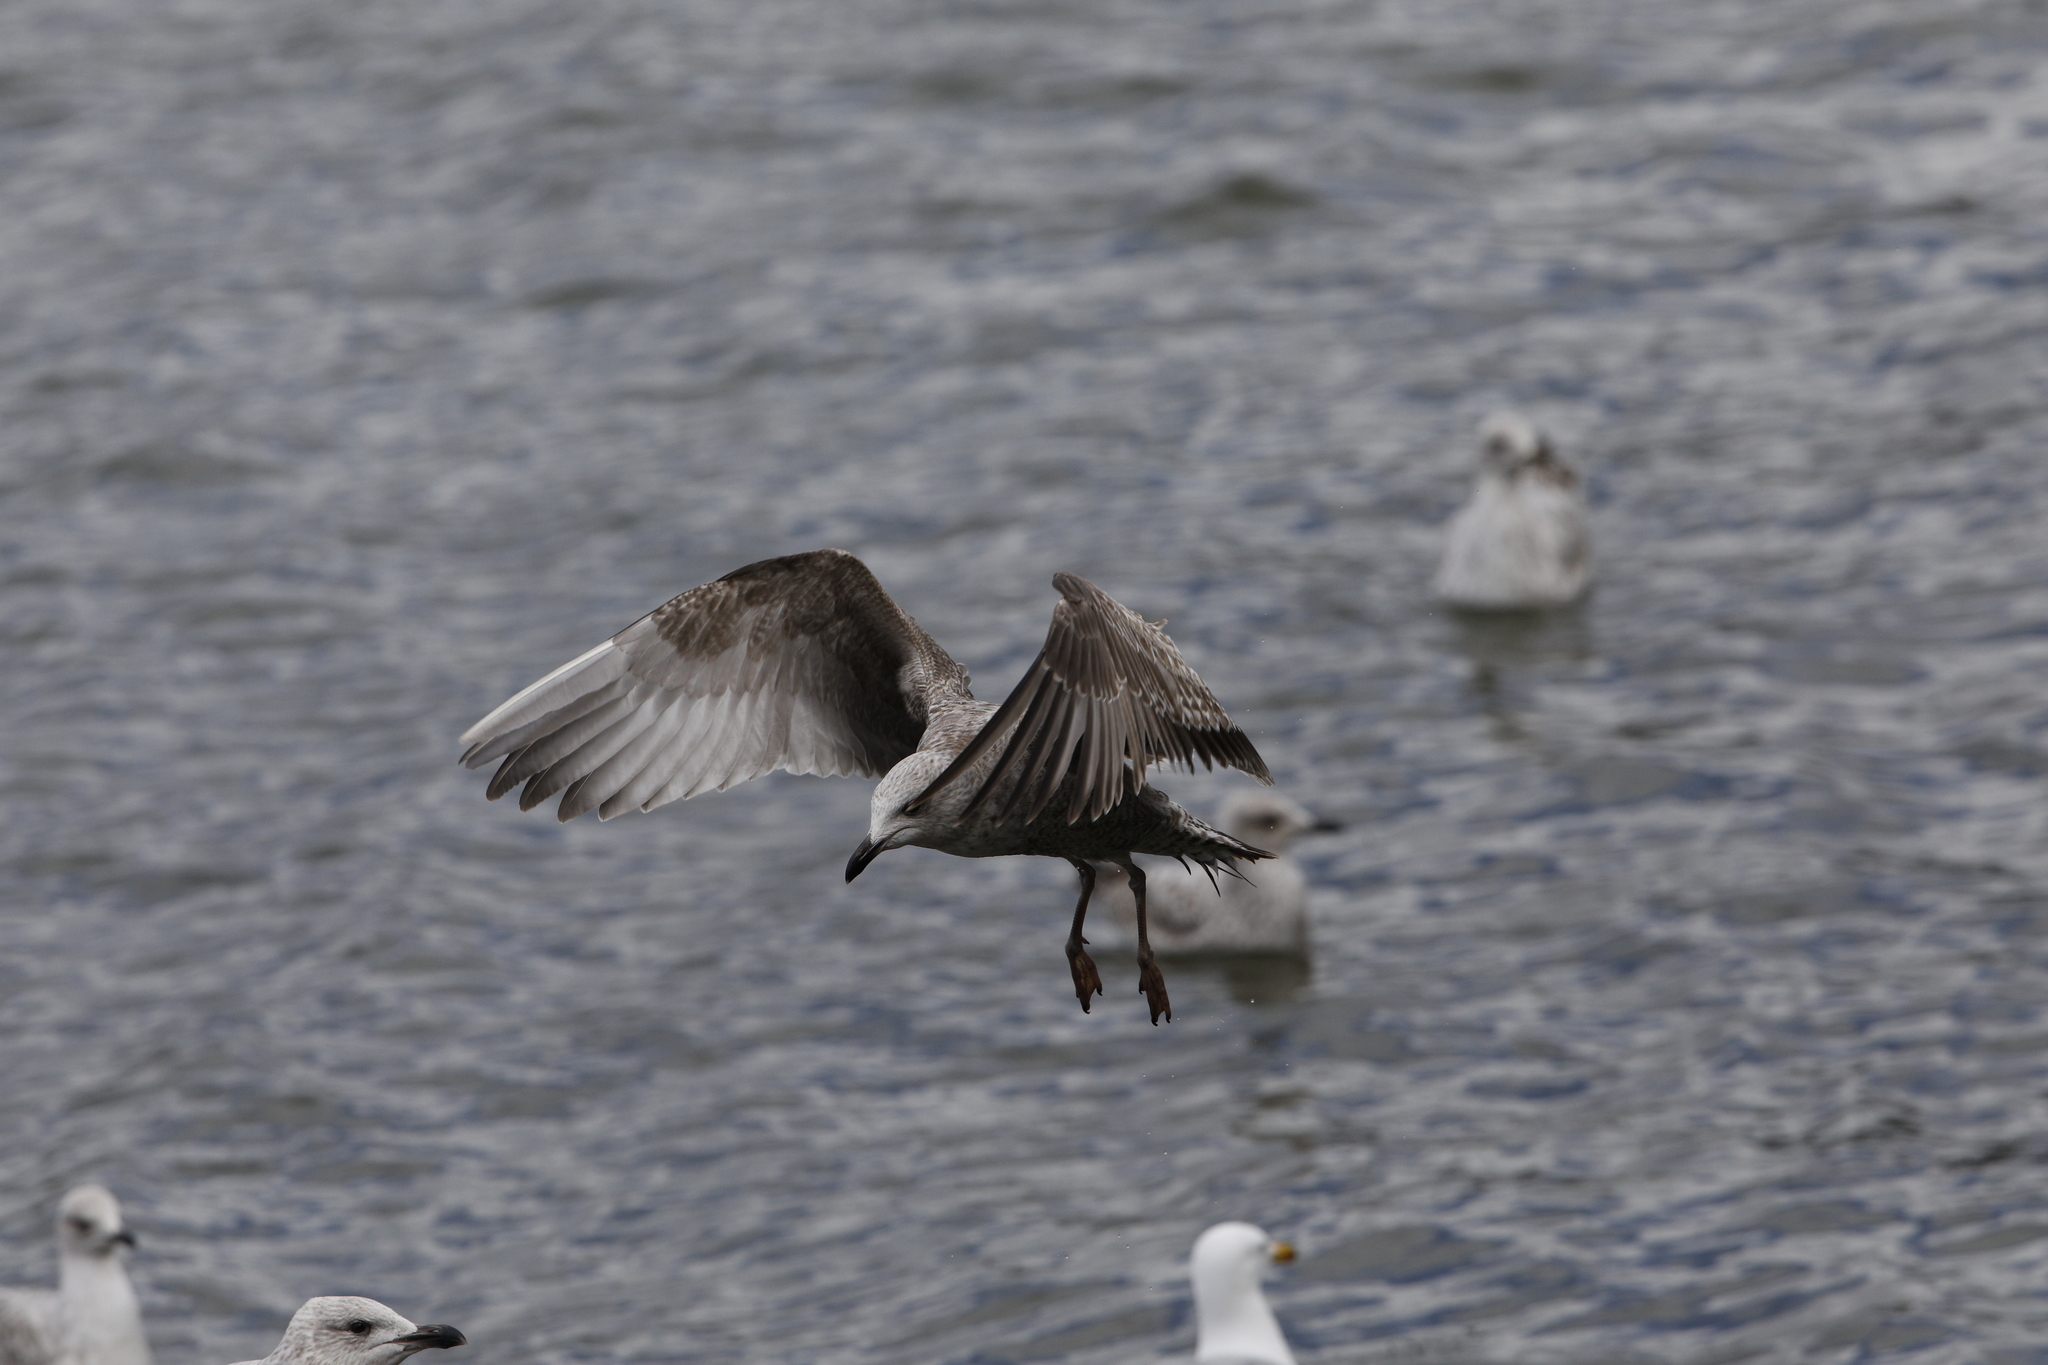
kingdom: Animalia
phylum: Chordata
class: Aves
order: Charadriiformes
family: Laridae
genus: Larus
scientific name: Larus argentatus
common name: Herring gull
